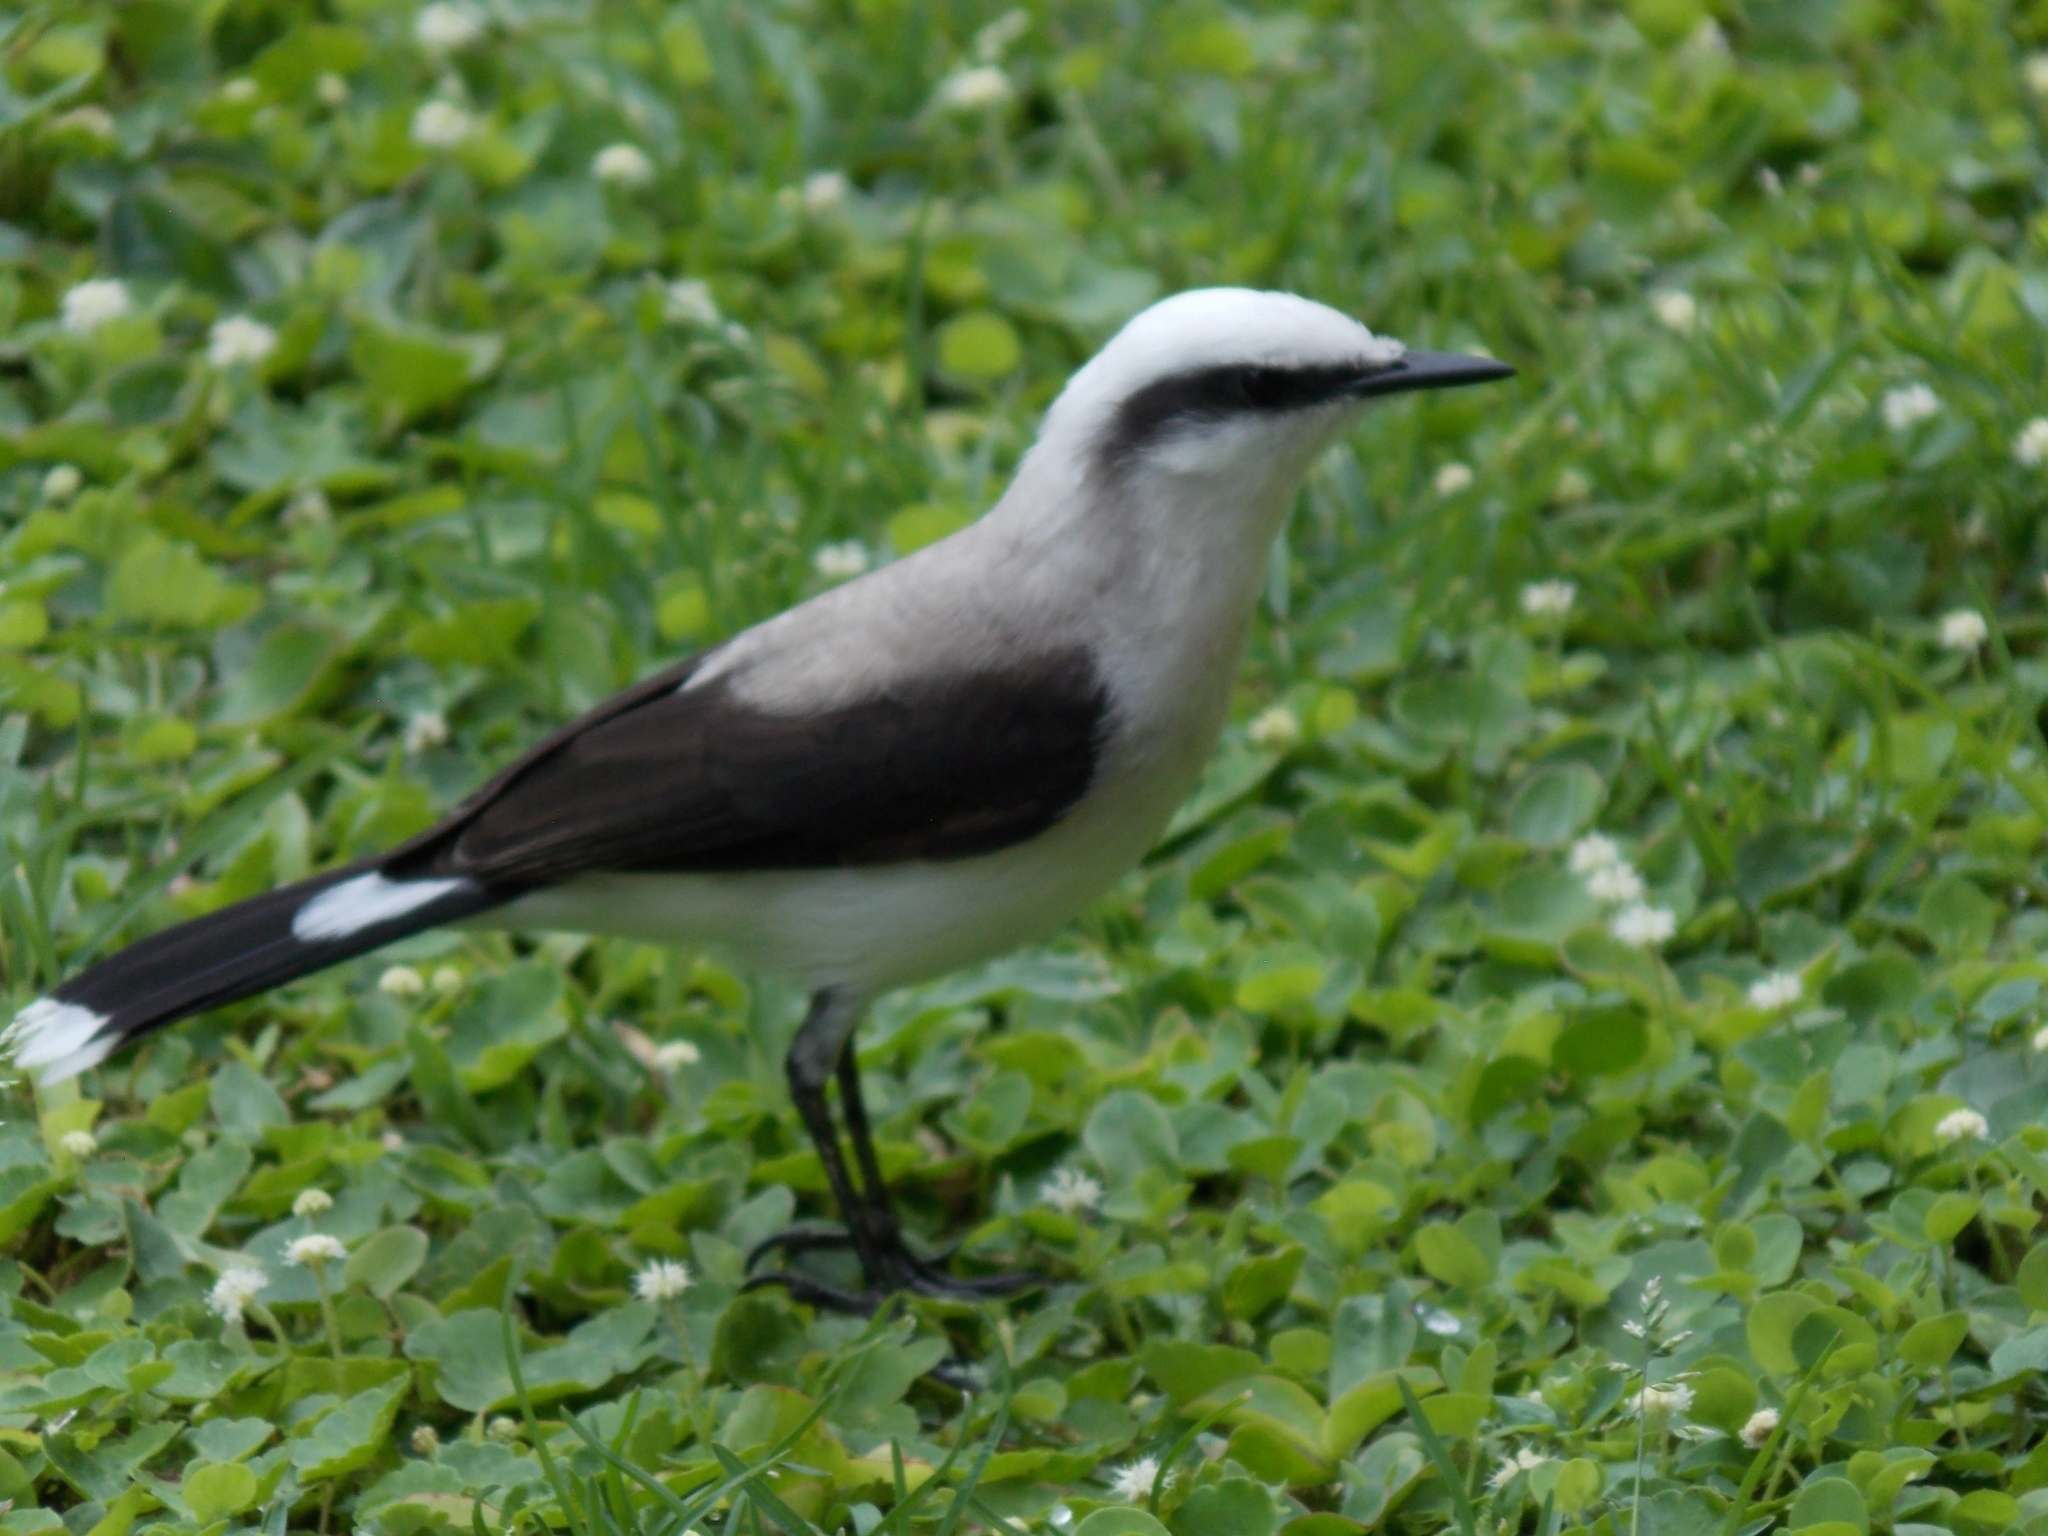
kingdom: Animalia
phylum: Chordata
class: Aves
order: Passeriformes
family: Tyrannidae
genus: Fluvicola
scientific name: Fluvicola nengeta
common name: Masked water tyrant
